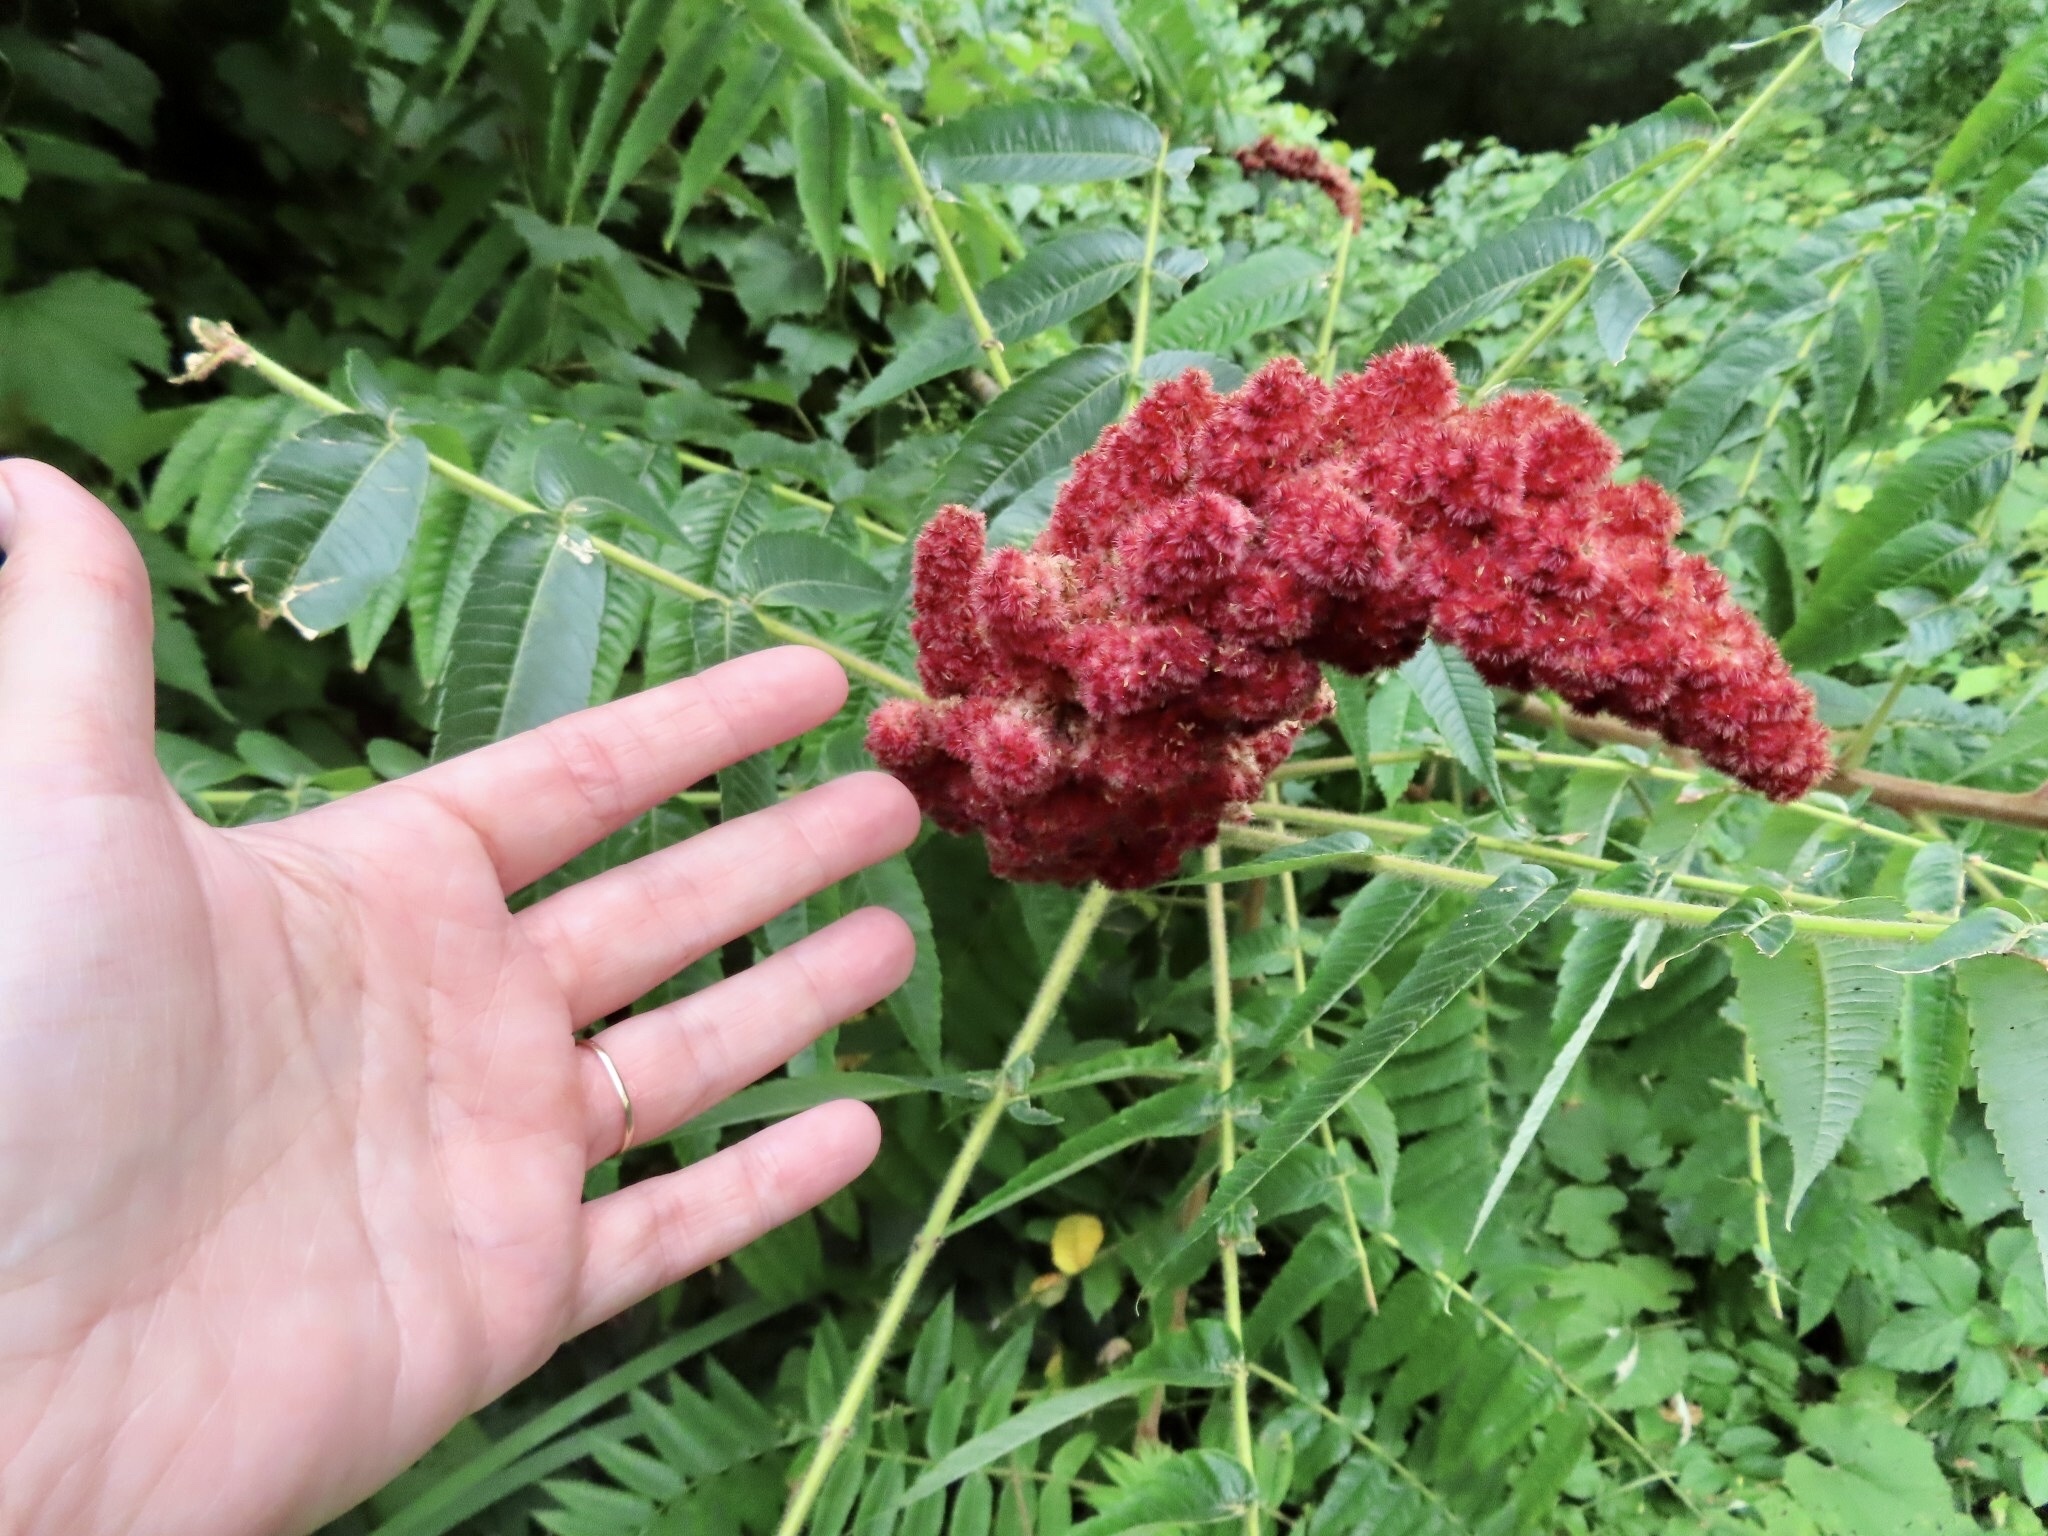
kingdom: Plantae
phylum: Tracheophyta
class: Magnoliopsida
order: Sapindales
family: Anacardiaceae
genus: Rhus
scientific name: Rhus typhina
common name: Staghorn sumac
